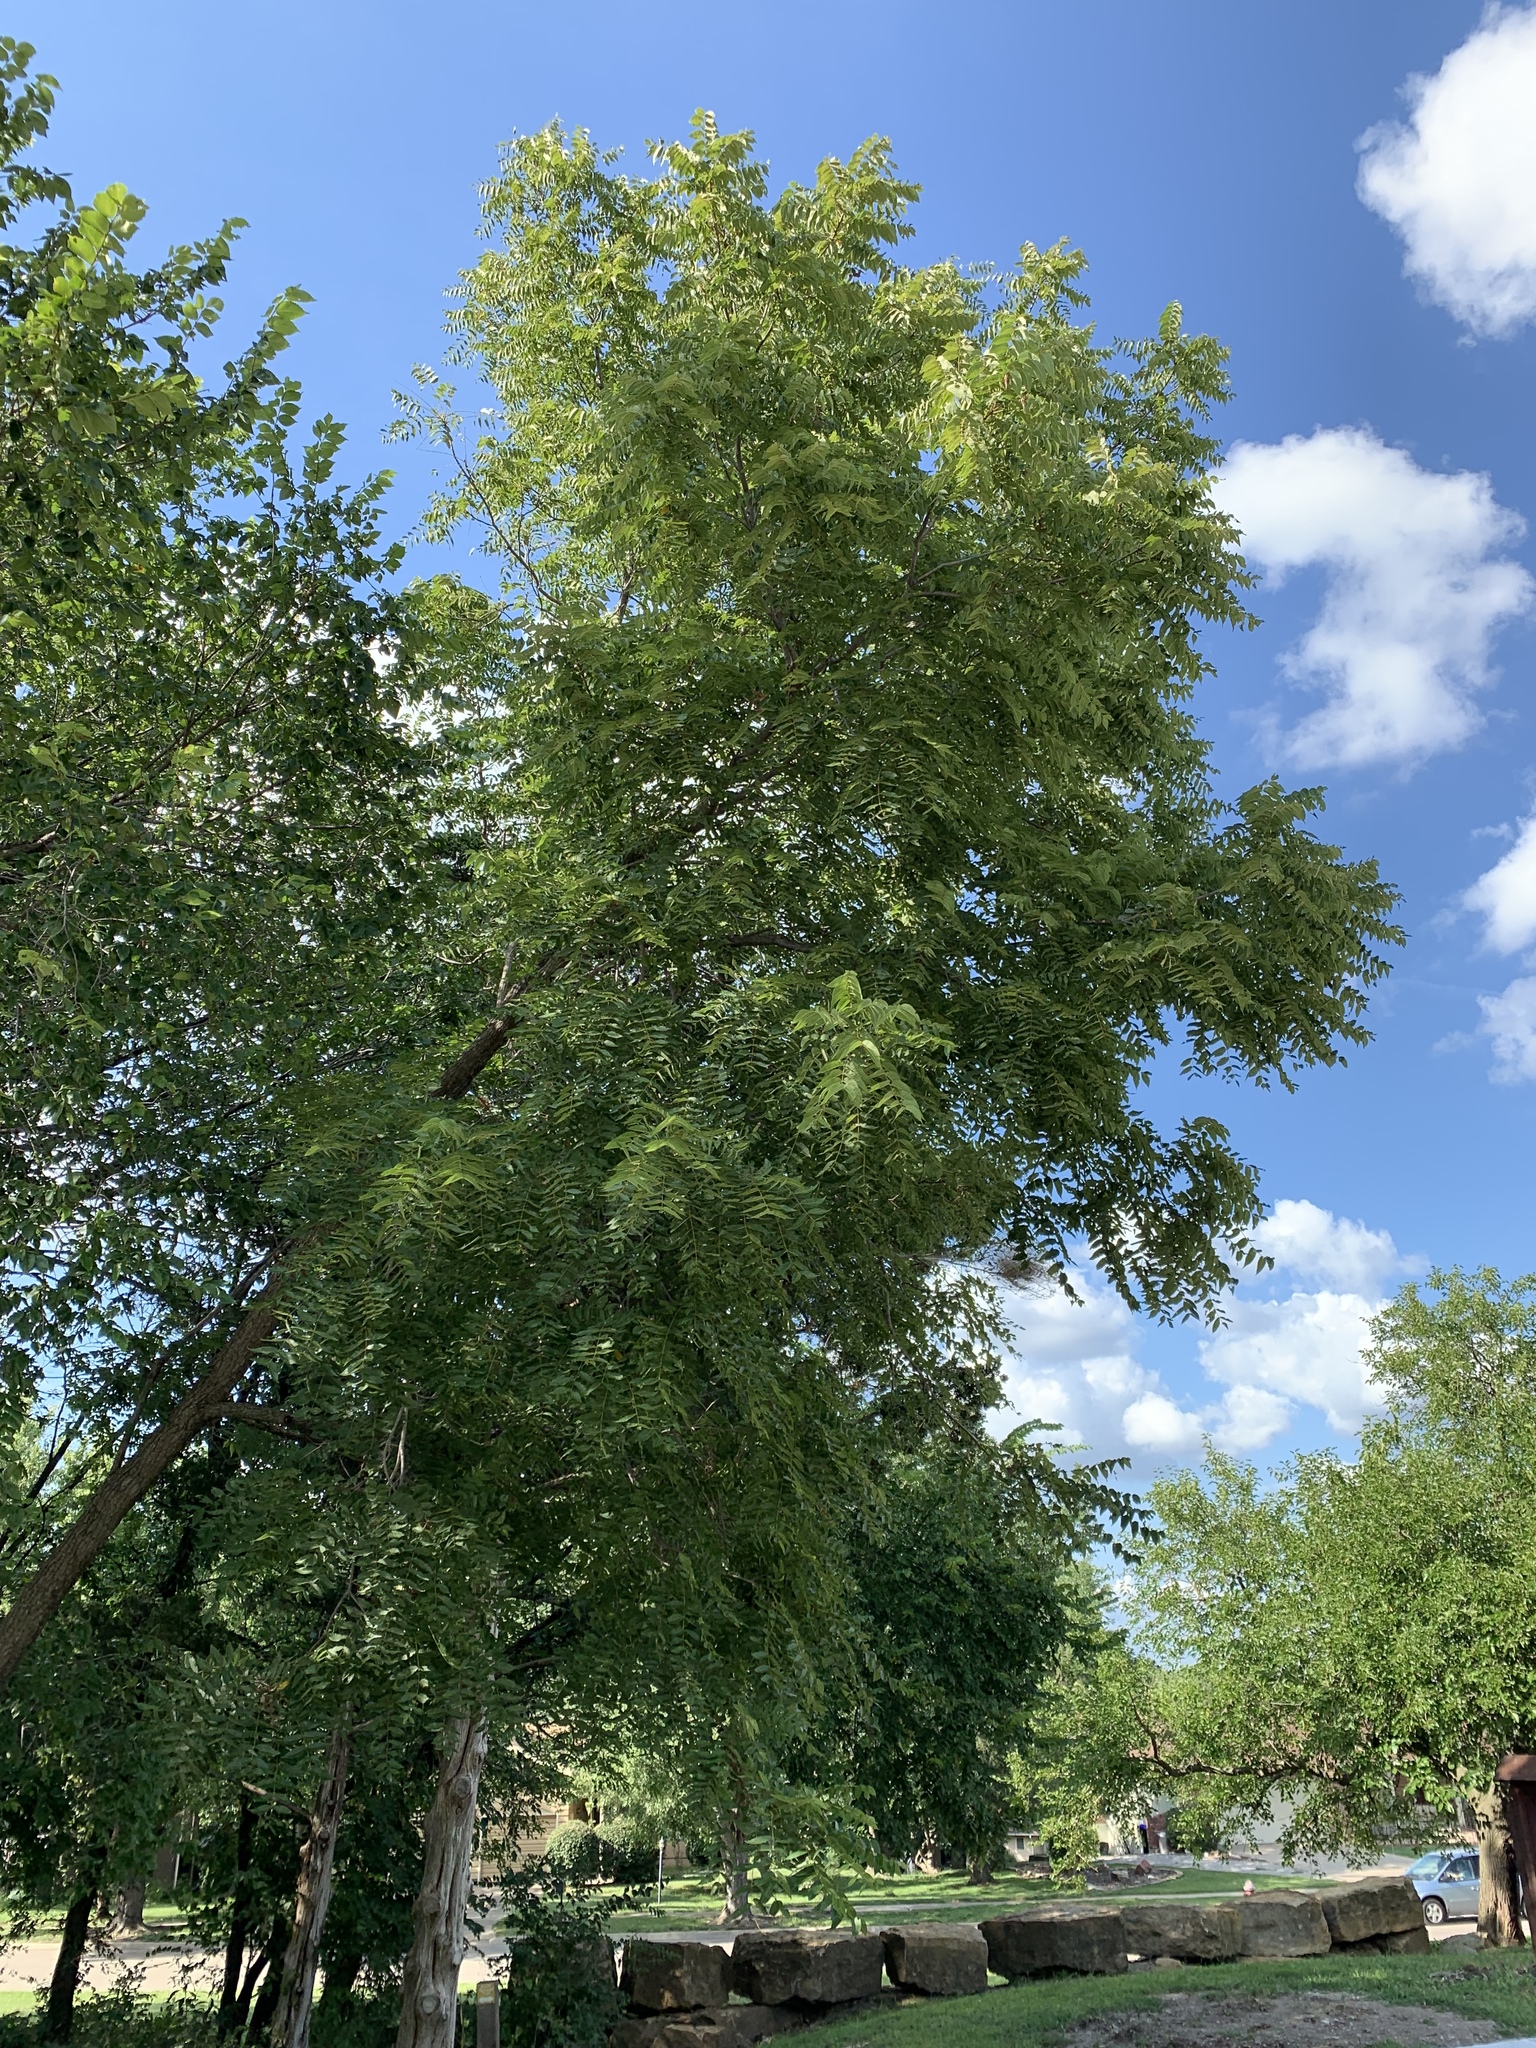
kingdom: Plantae
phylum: Tracheophyta
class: Magnoliopsida
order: Fagales
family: Juglandaceae
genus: Juglans
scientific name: Juglans nigra
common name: Black walnut
